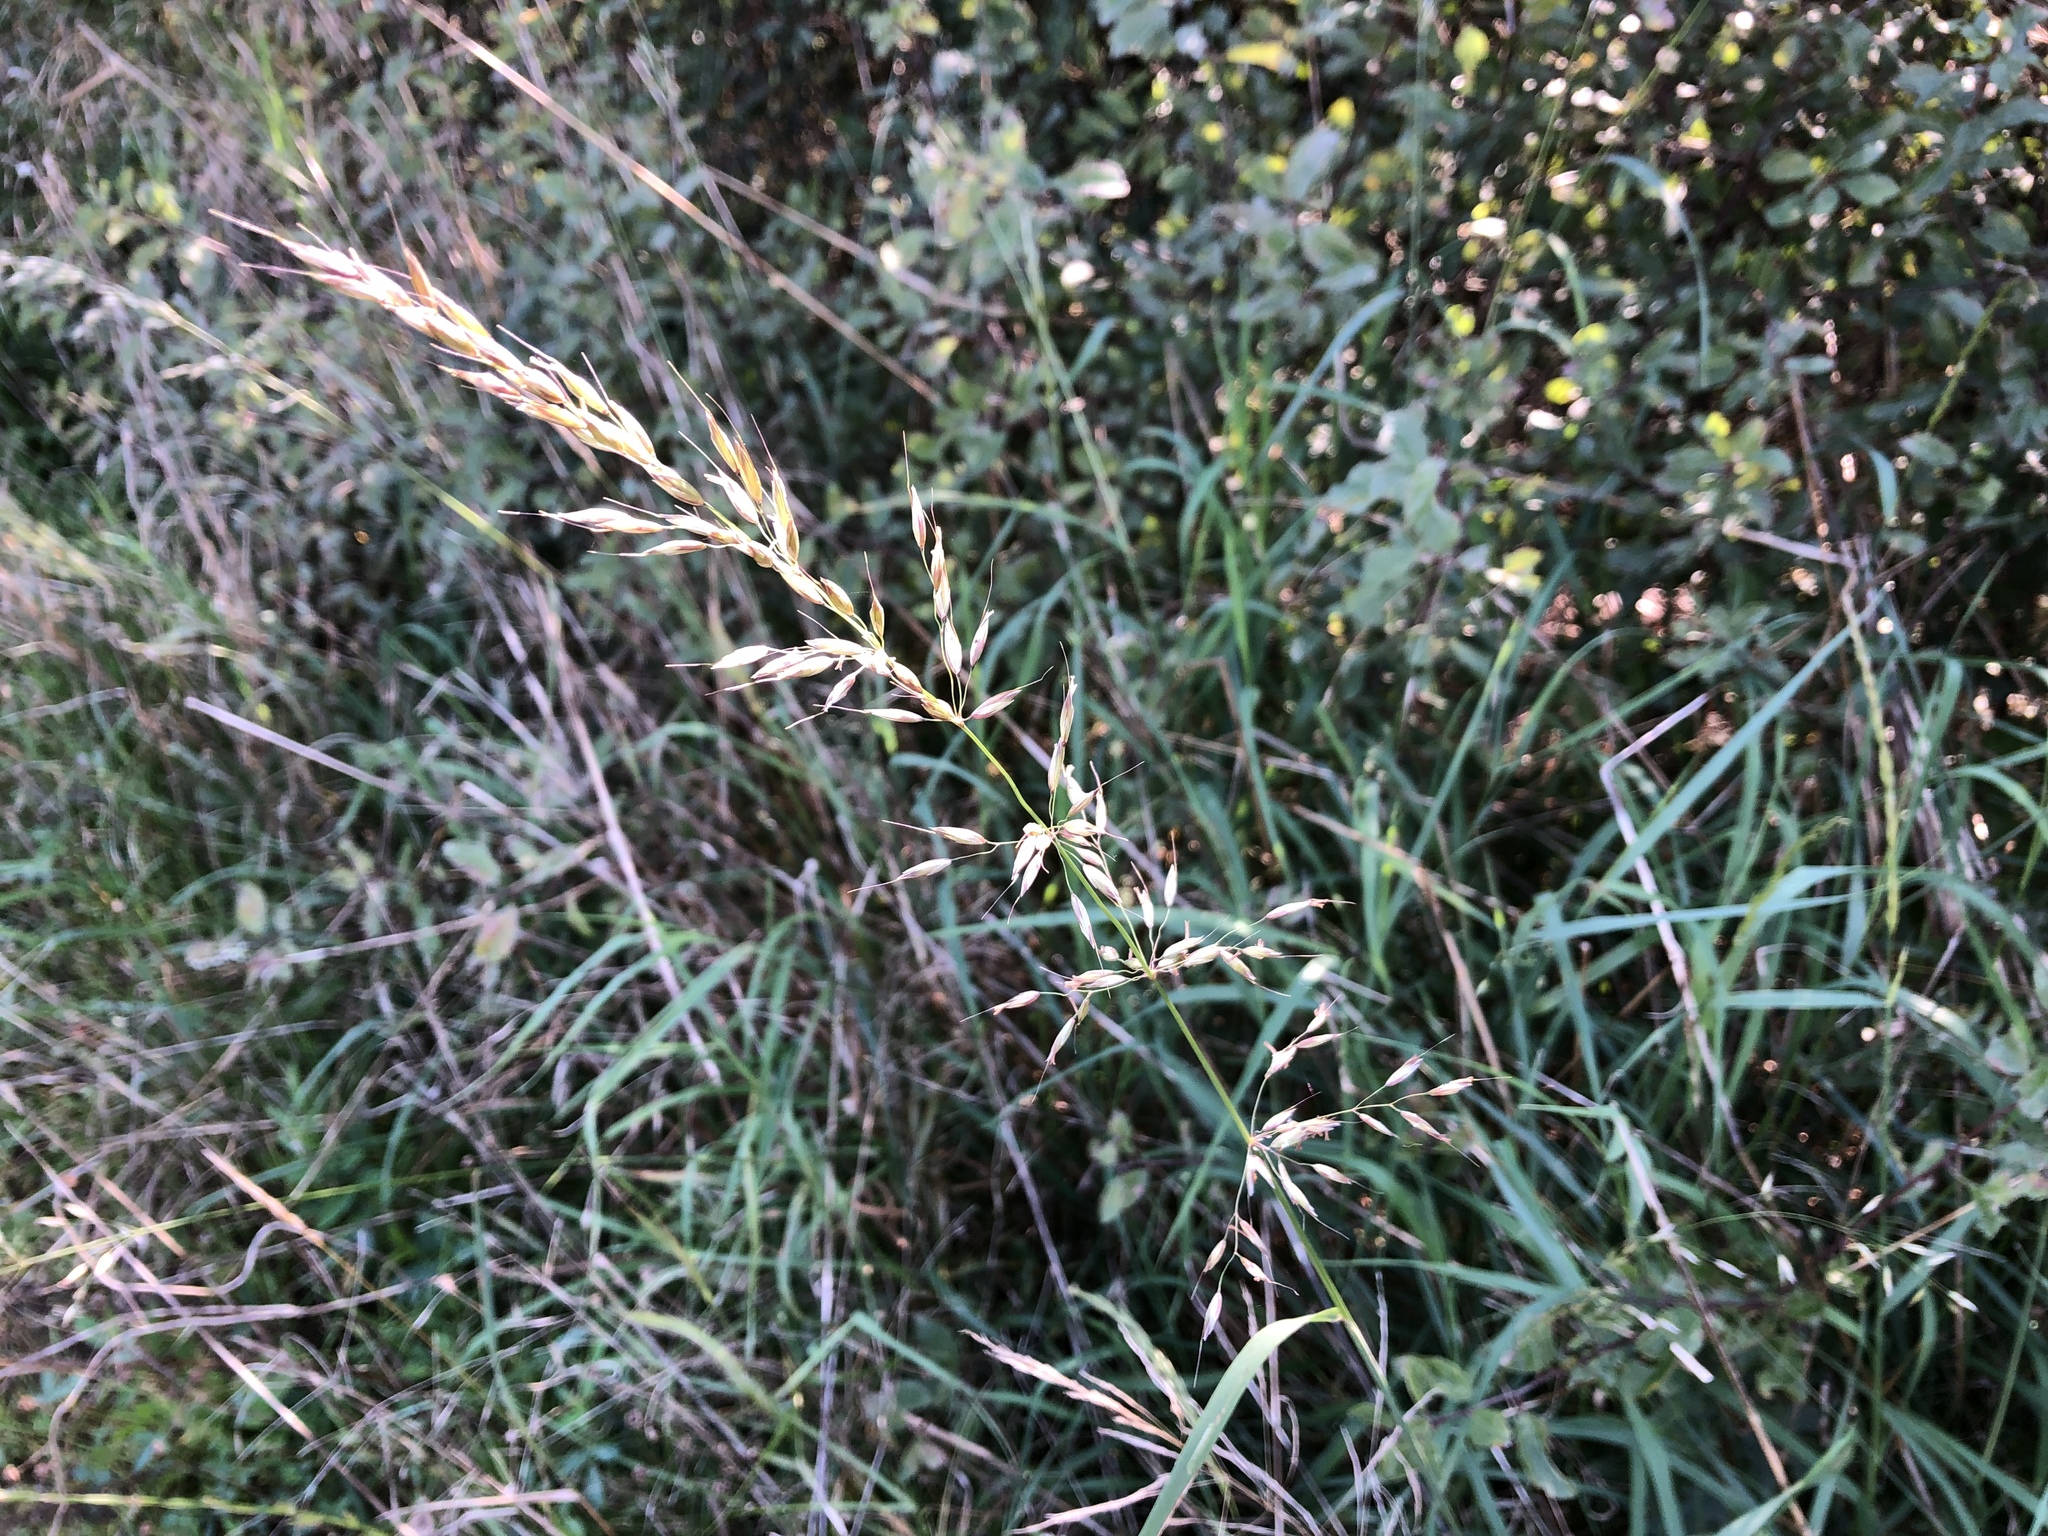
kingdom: Plantae
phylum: Tracheophyta
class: Liliopsida
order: Poales
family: Poaceae
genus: Arrhenatherum
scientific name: Arrhenatherum elatius
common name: Tall oatgrass
